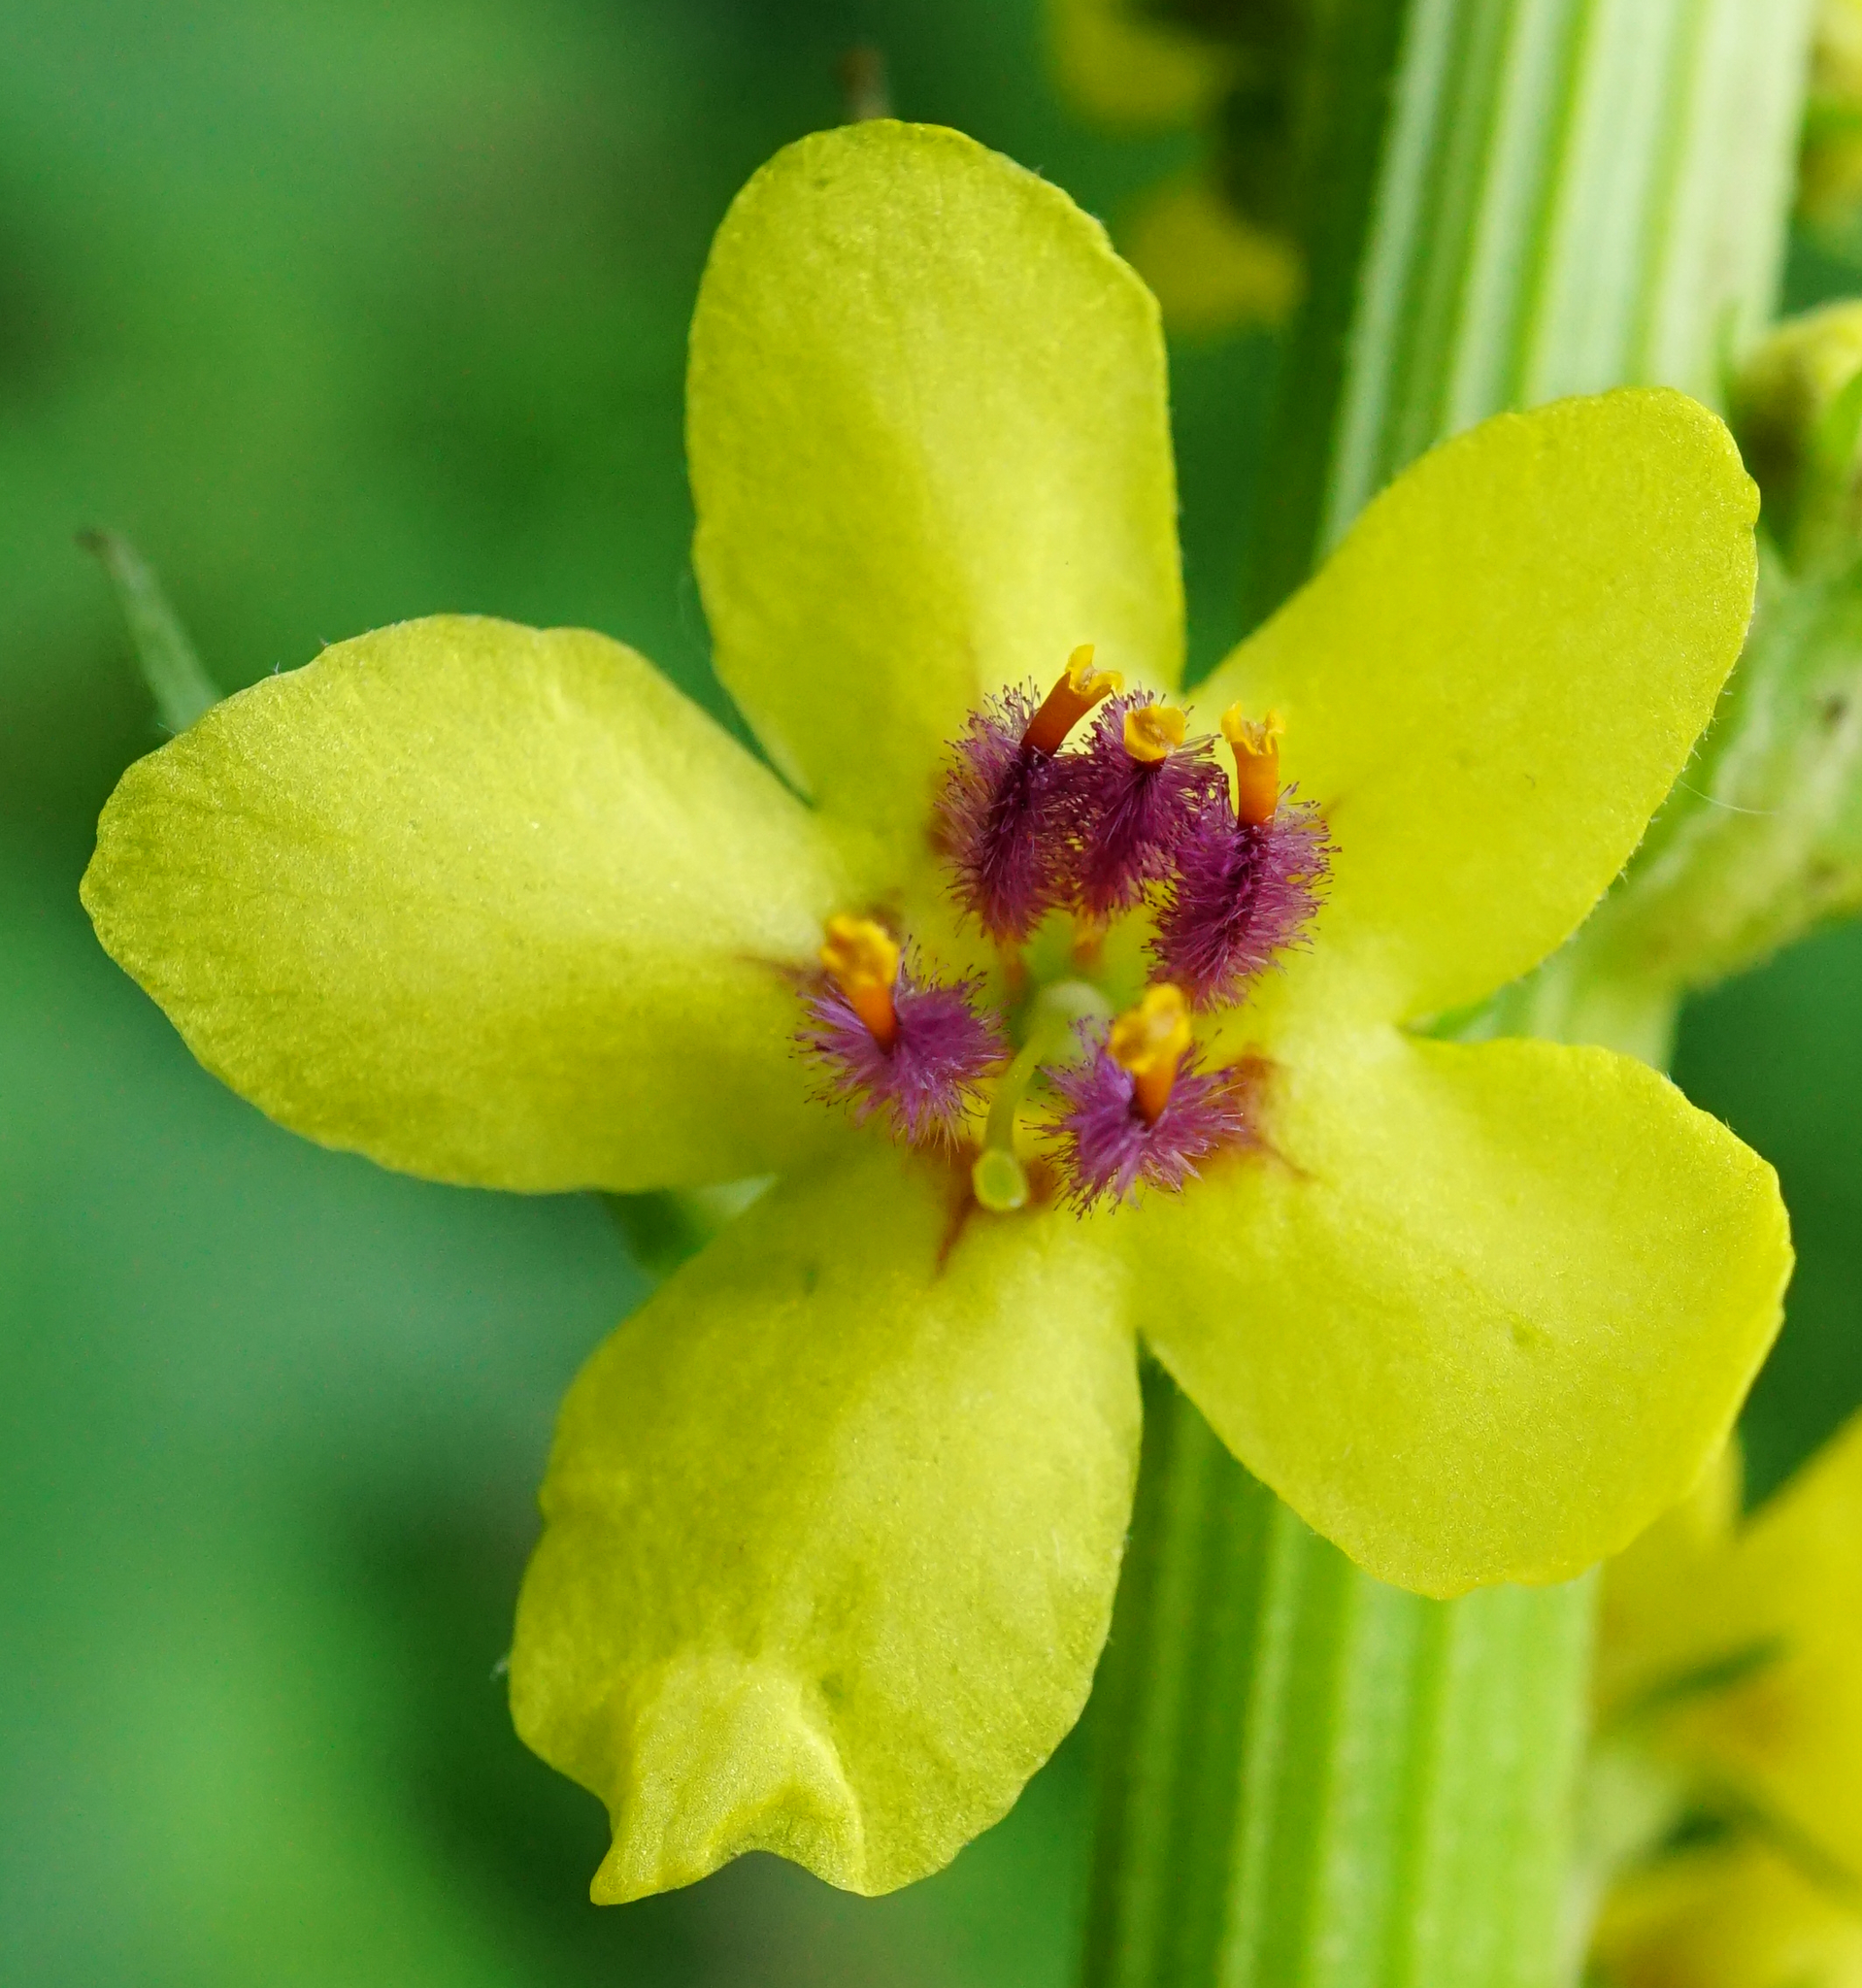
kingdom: Plantae
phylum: Tracheophyta
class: Magnoliopsida
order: Lamiales
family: Scrophulariaceae
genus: Verbascum
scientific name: Verbascum nigrum
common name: Dark mullein
